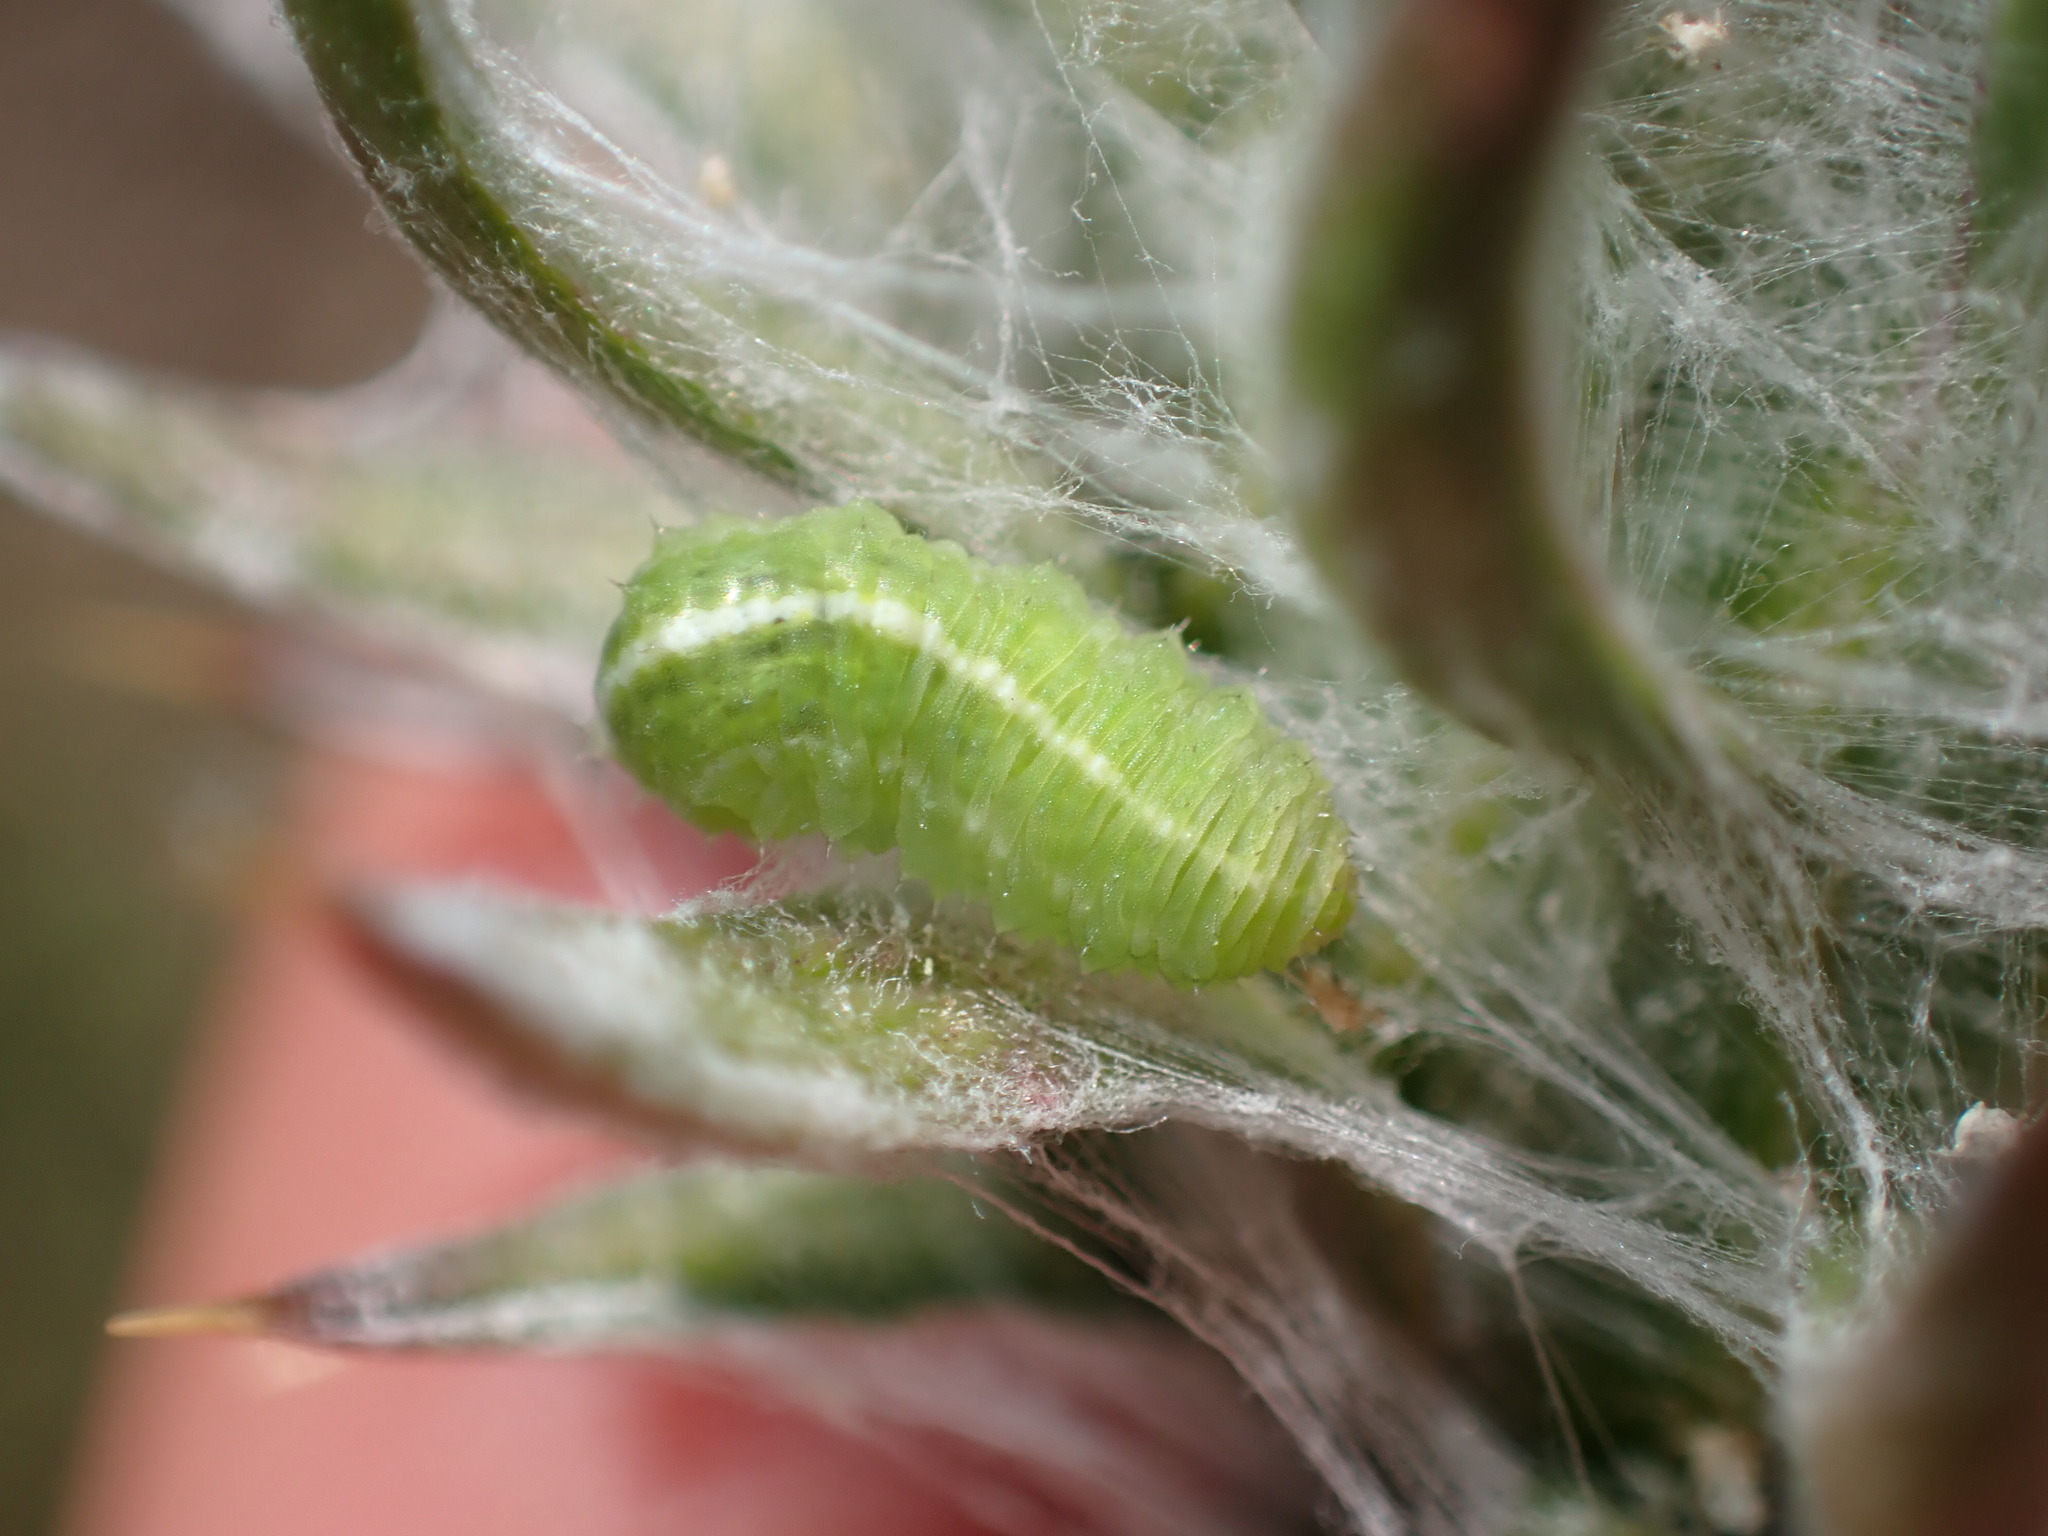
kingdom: Animalia
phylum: Arthropoda
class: Insecta
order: Diptera
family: Syrphidae
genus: Scaeva
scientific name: Scaeva affinis
